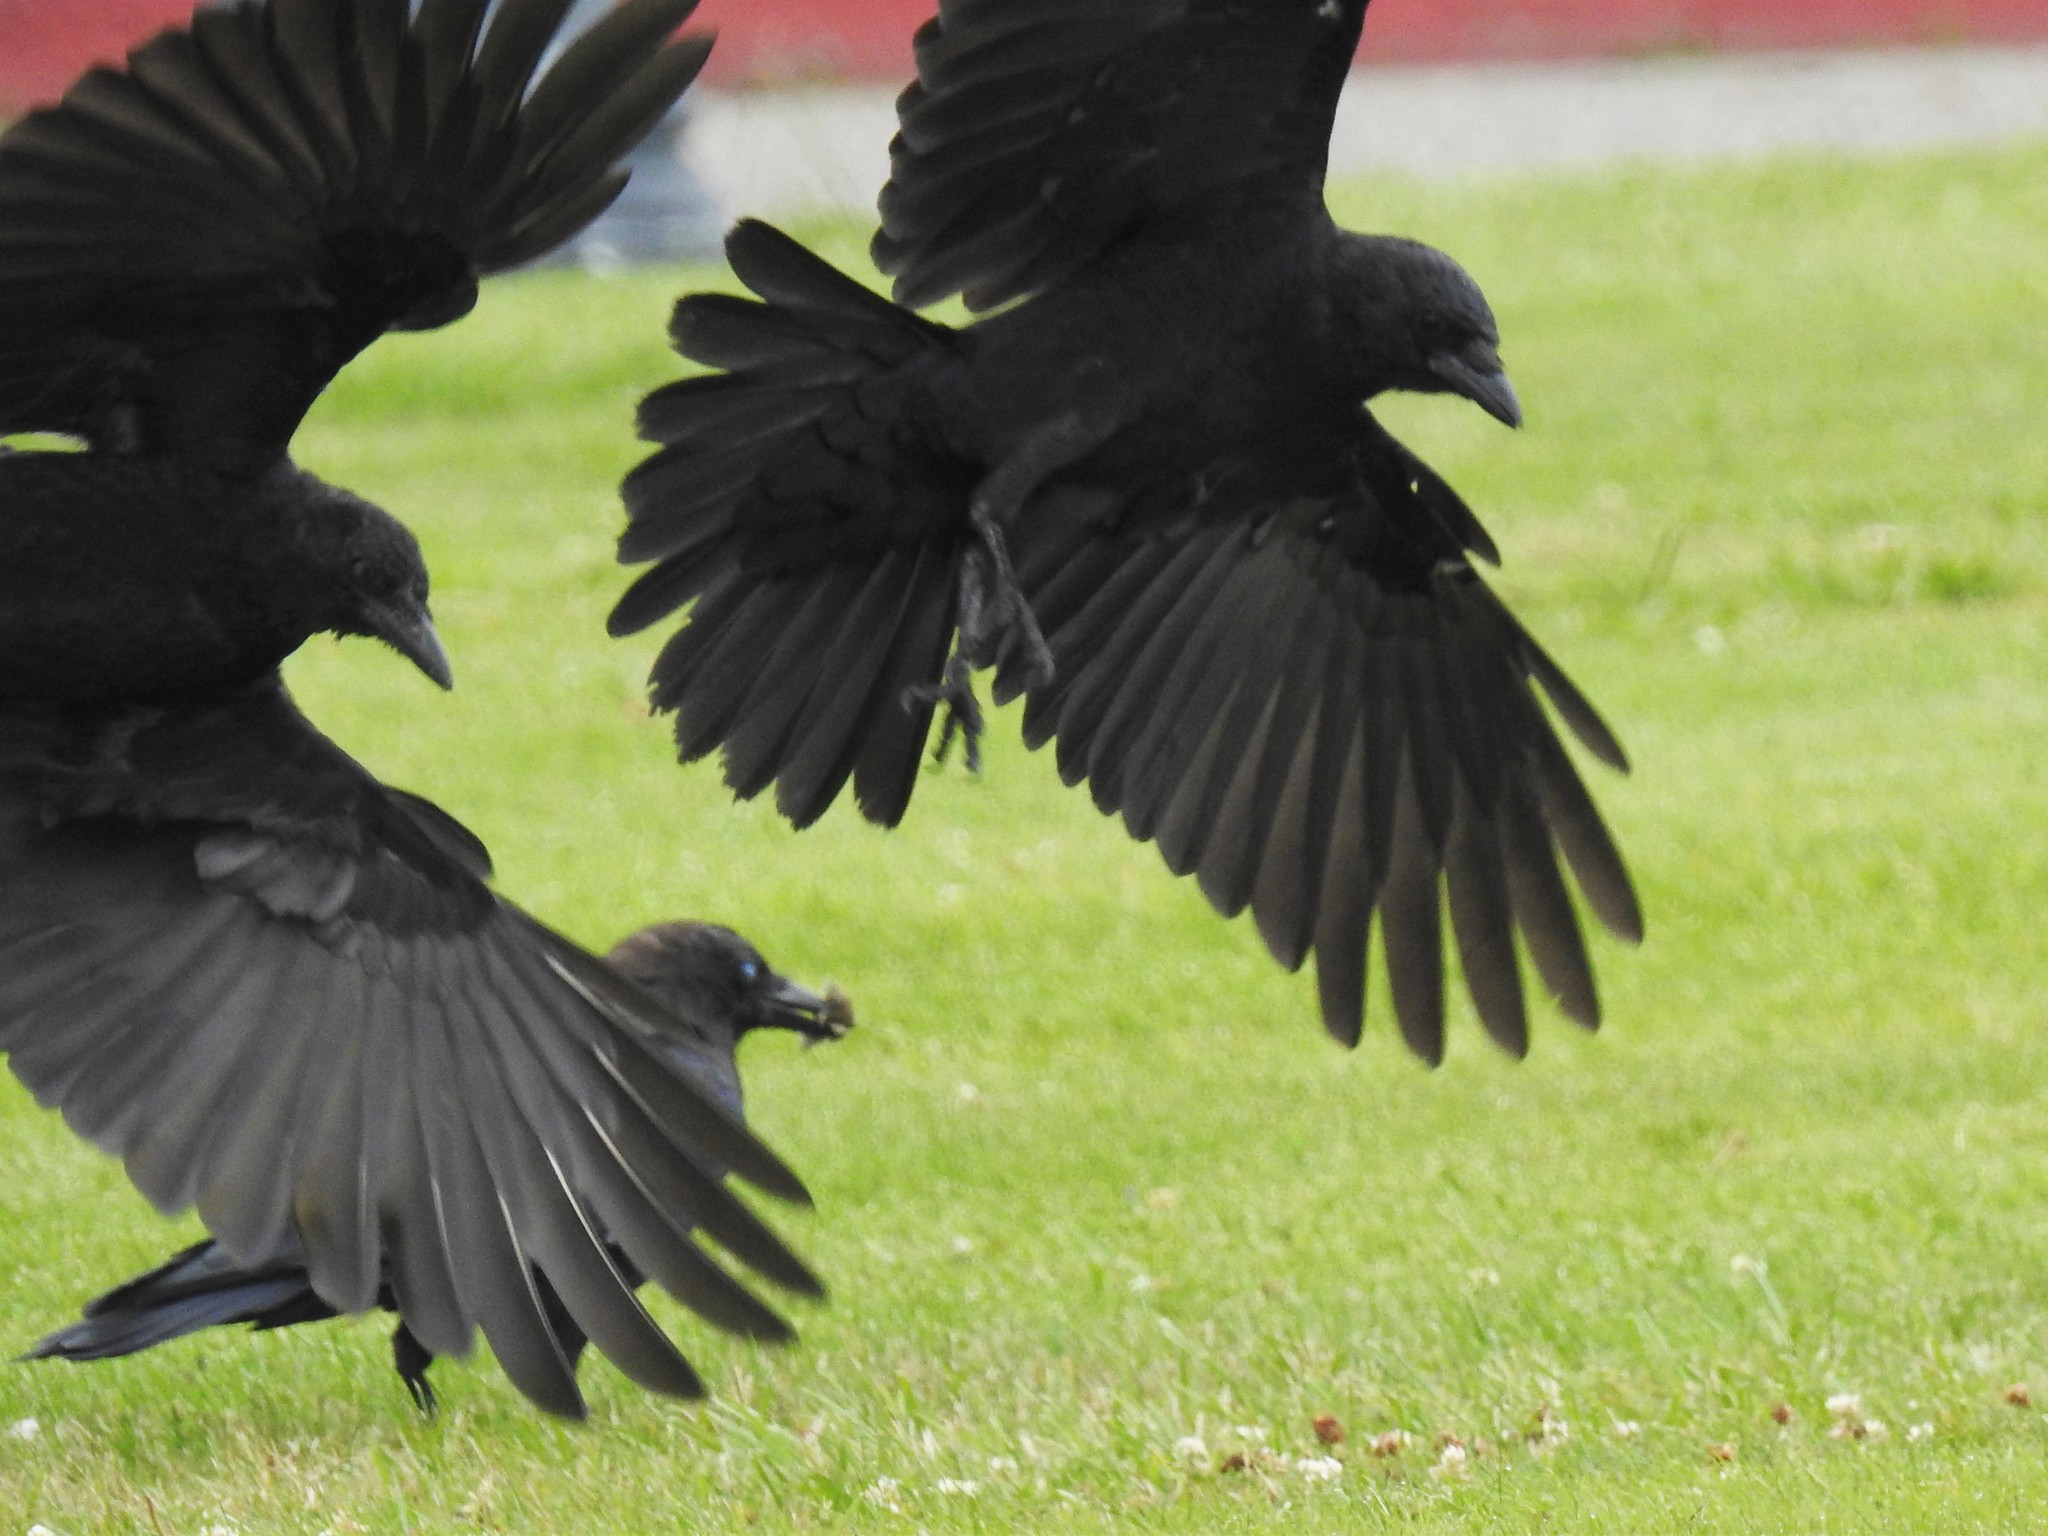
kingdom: Animalia
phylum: Chordata
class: Aves
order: Passeriformes
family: Corvidae
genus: Corvus
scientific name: Corvus brachyrhynchos
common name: American crow
